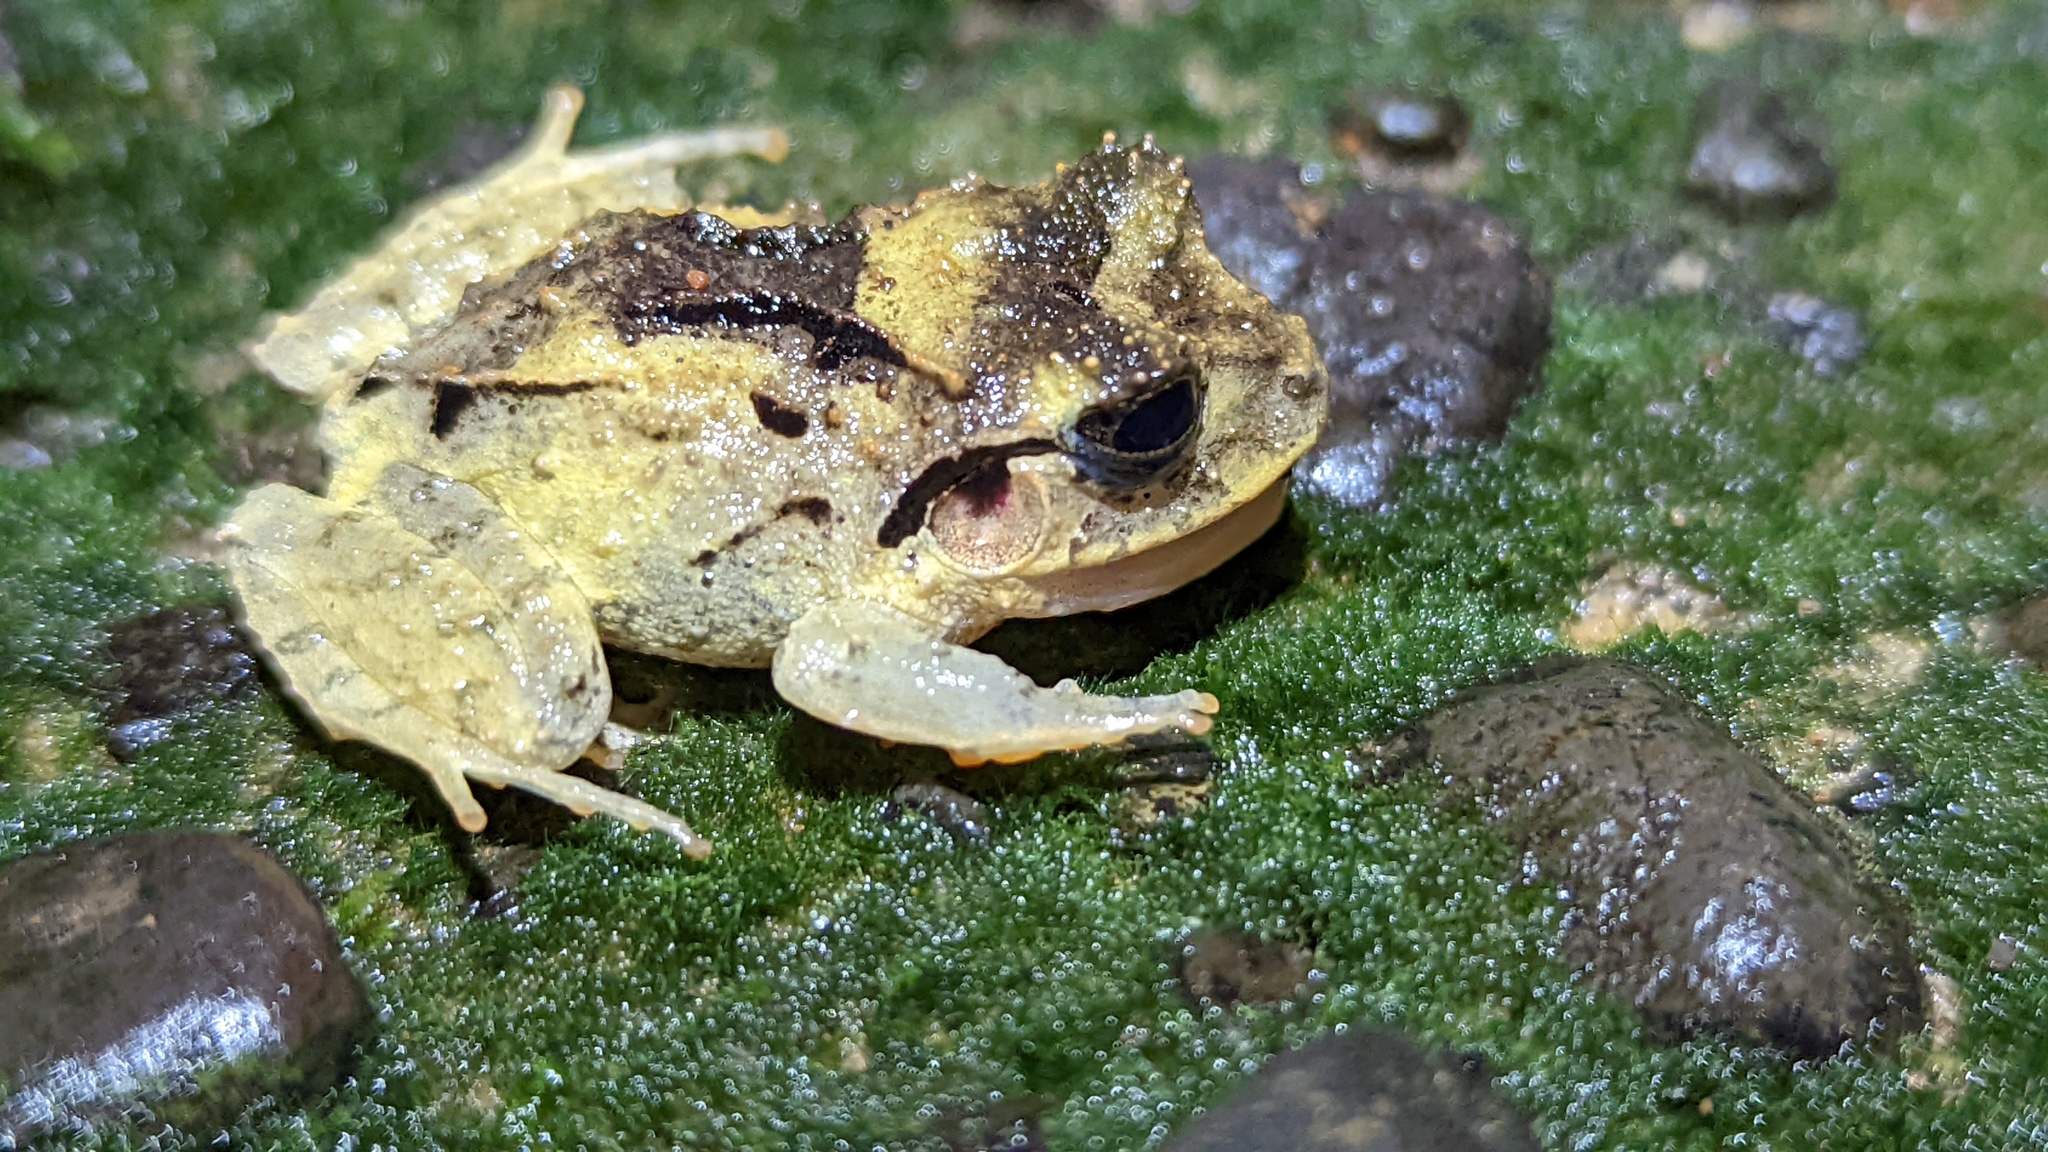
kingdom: Animalia
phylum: Chordata
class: Amphibia
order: Anura
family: Craugastoridae
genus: Craugastor
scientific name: Craugastor megacephalus
